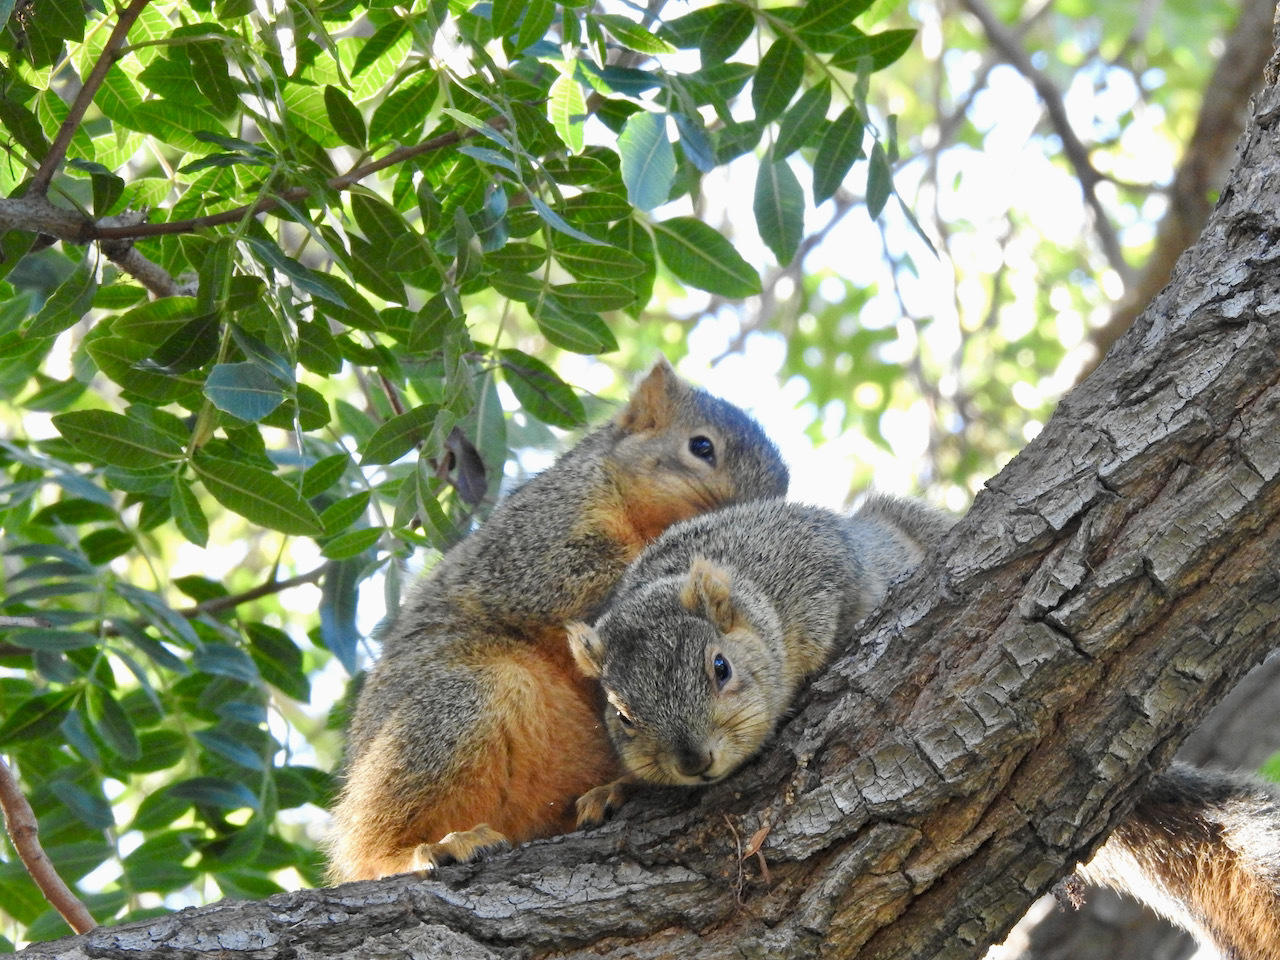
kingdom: Animalia
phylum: Chordata
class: Mammalia
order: Rodentia
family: Sciuridae
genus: Sciurus
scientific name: Sciurus niger
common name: Fox squirrel
